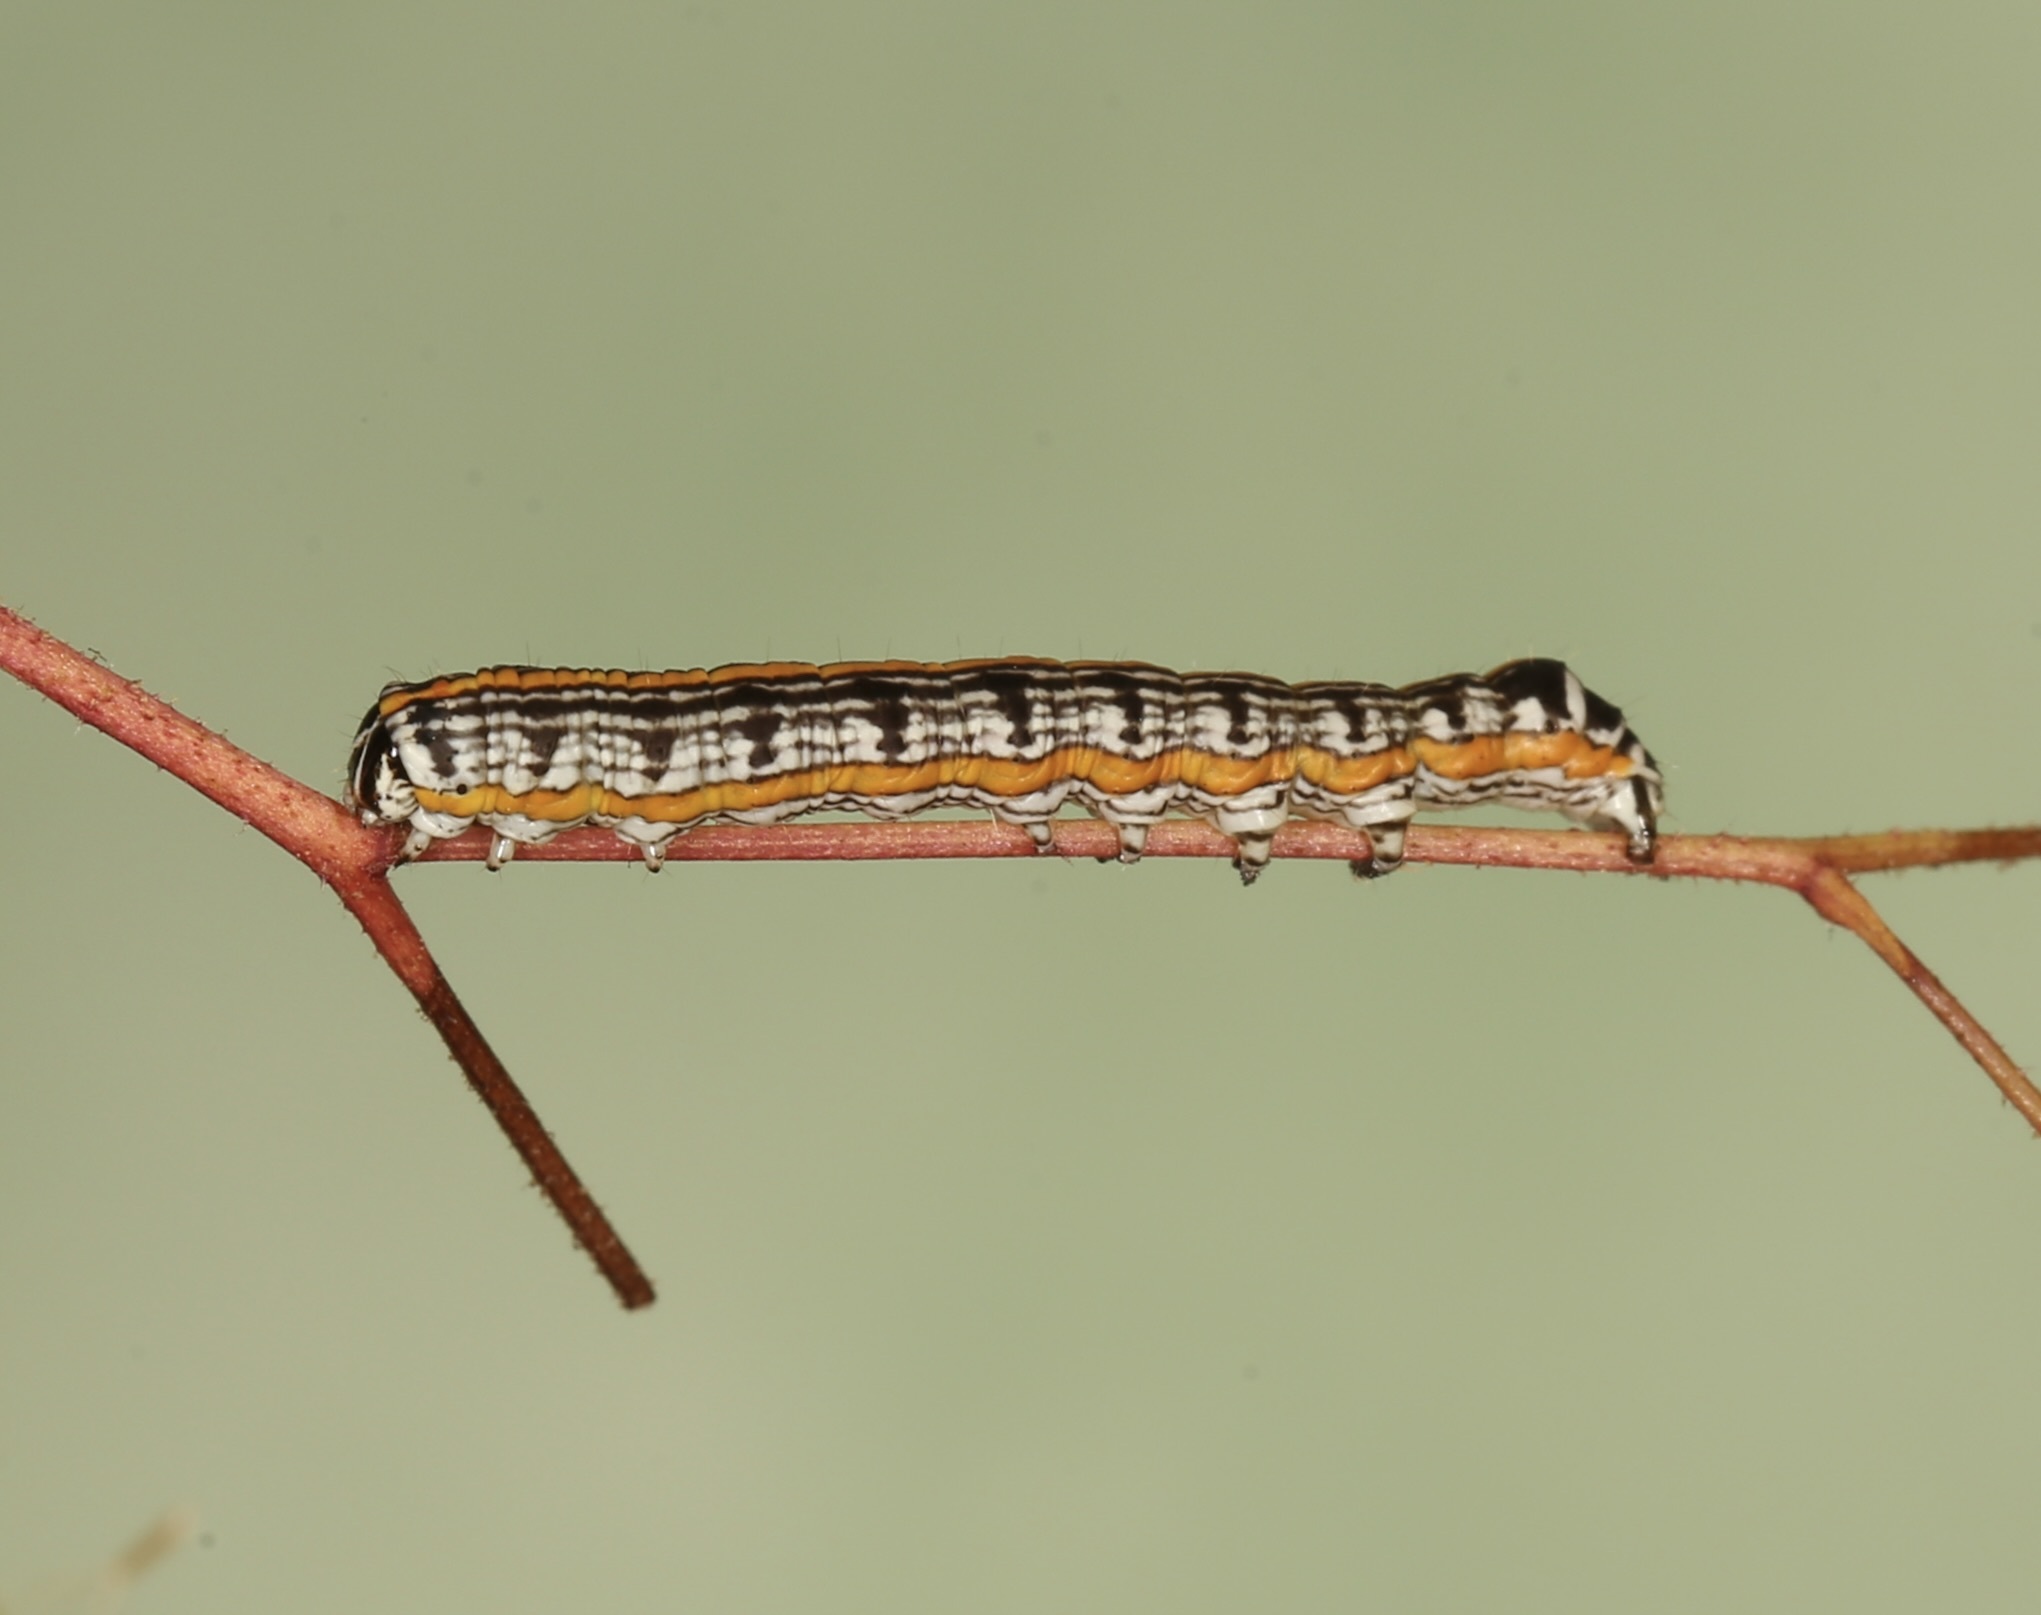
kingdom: Animalia
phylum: Arthropoda
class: Insecta
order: Lepidoptera
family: Noctuidae
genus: Cucullia
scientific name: Cucullia alfarata
